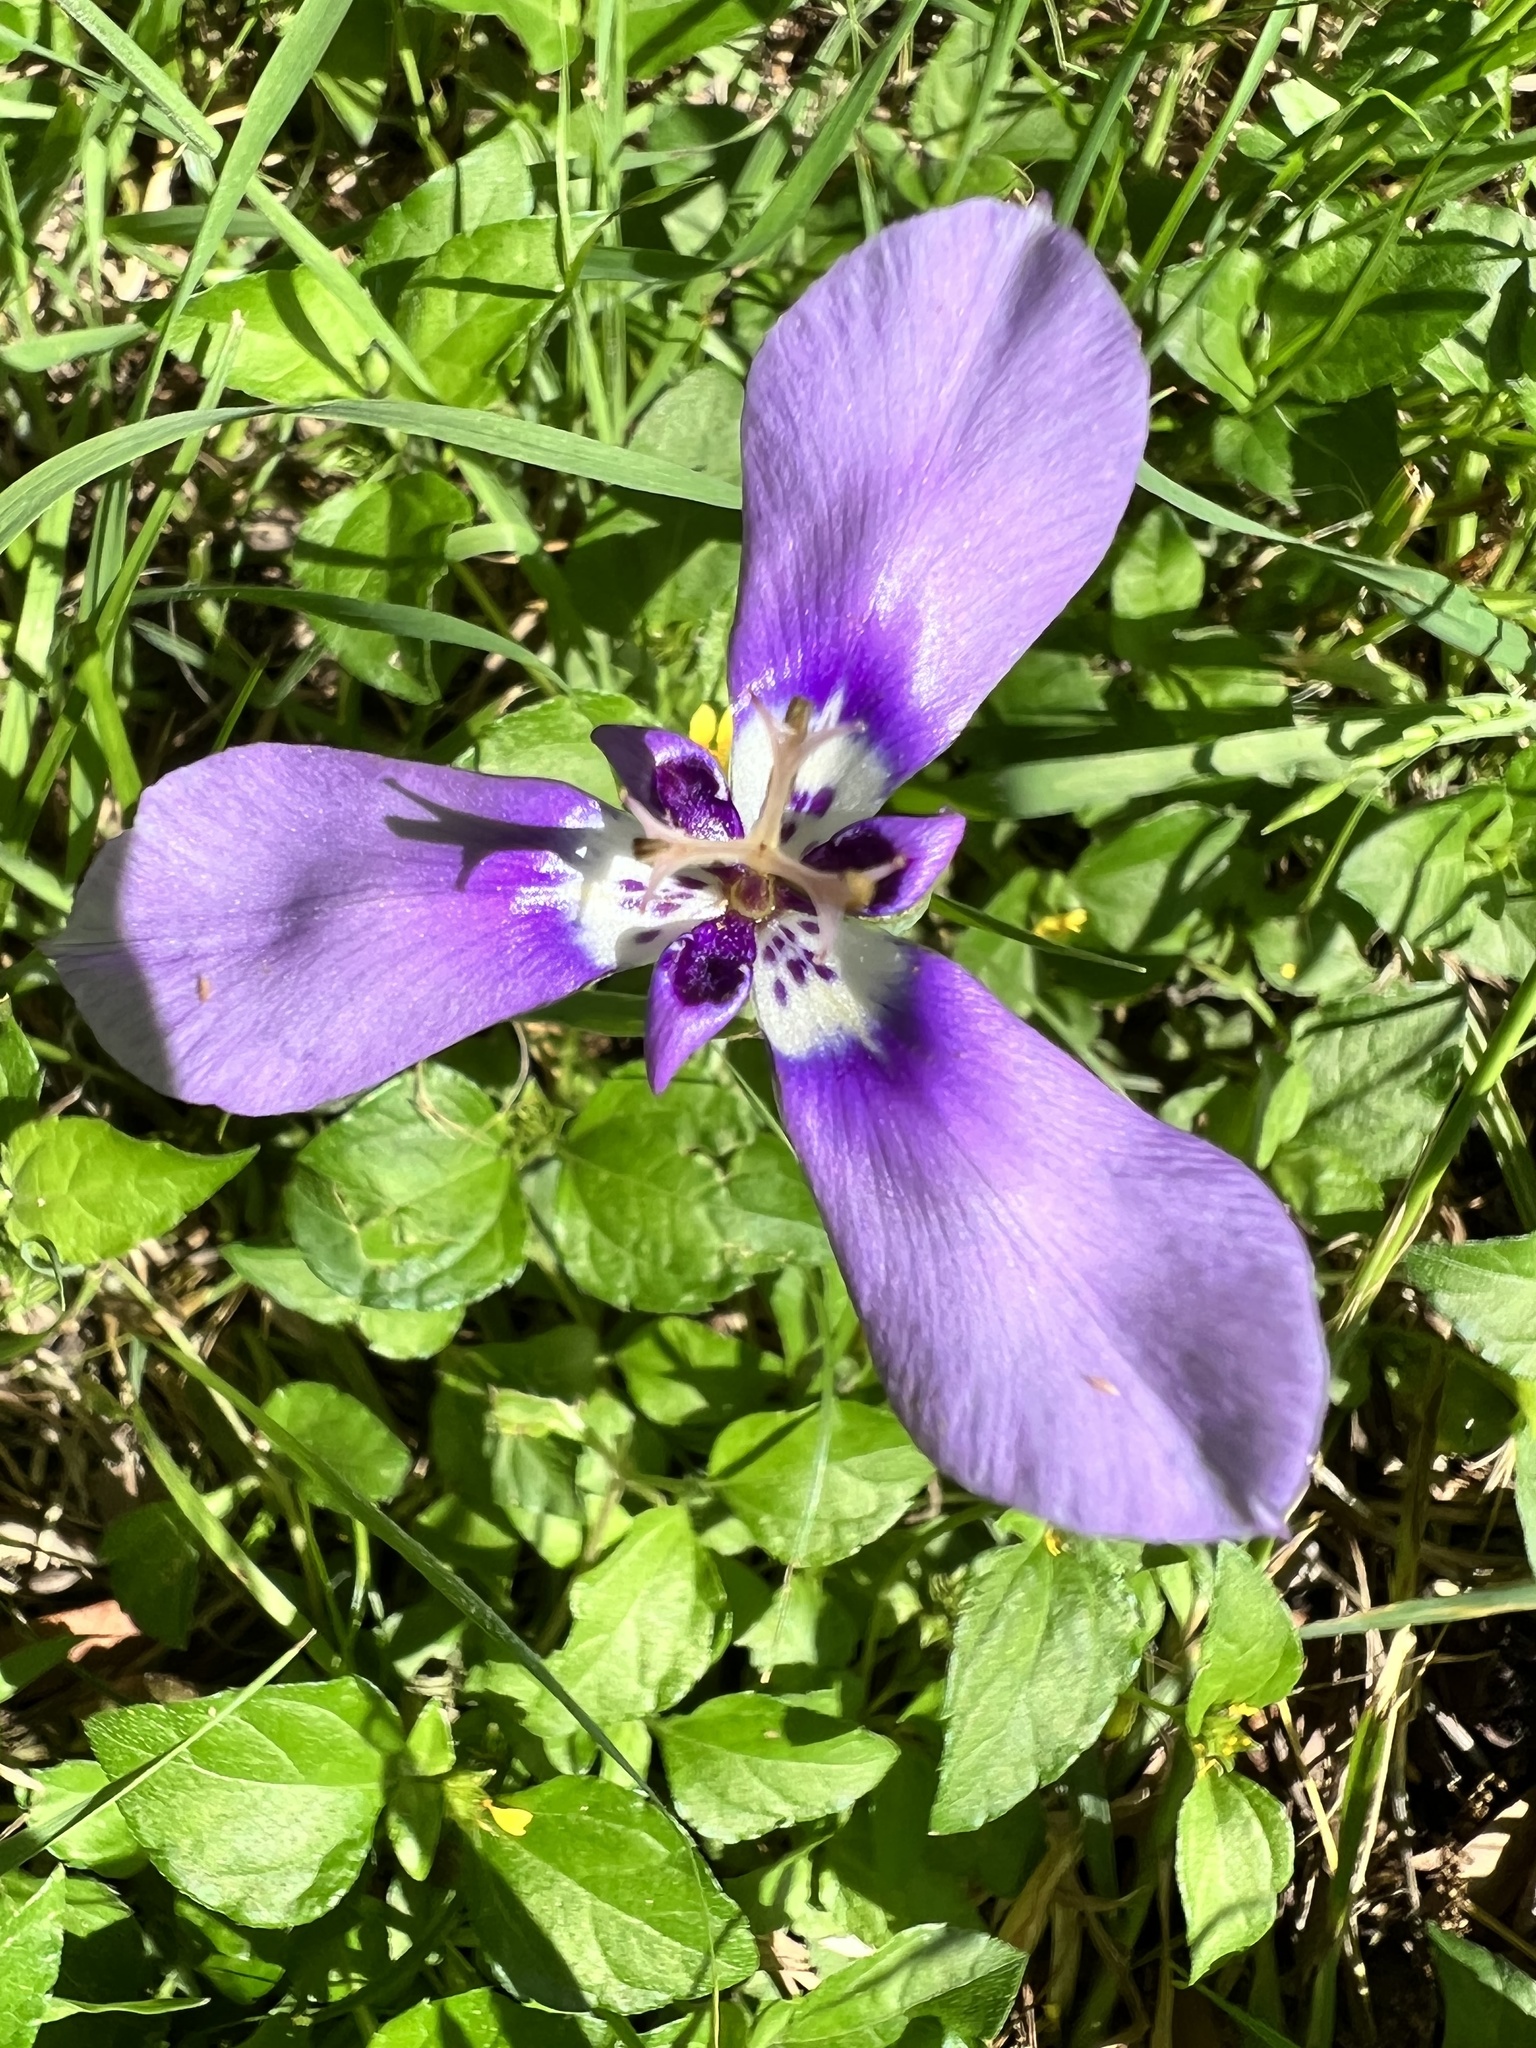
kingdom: Plantae
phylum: Tracheophyta
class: Liliopsida
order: Asparagales
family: Iridaceae
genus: Herbertia
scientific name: Herbertia lahue
